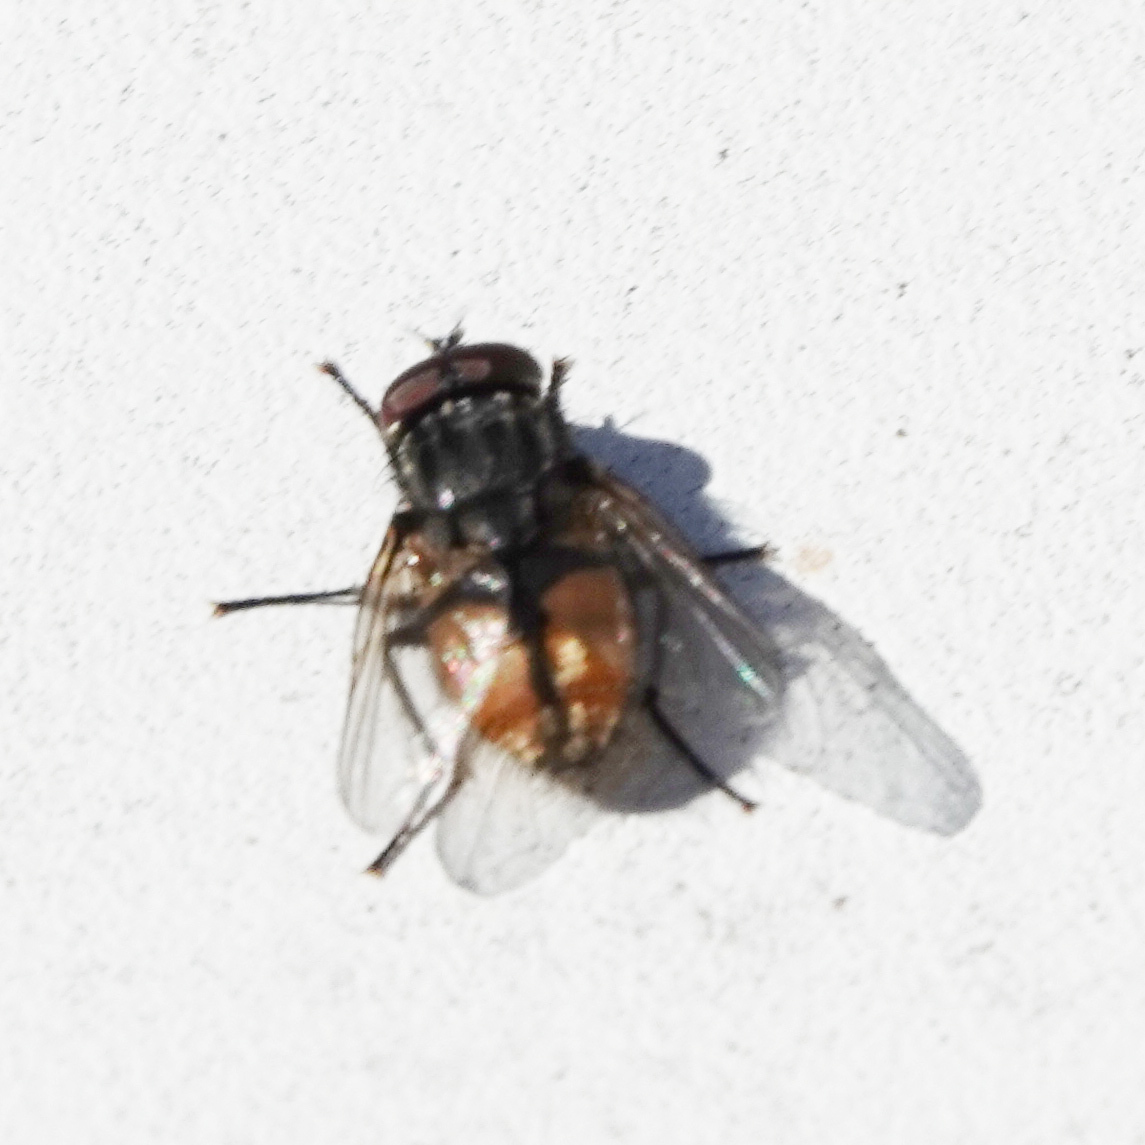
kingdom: Animalia
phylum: Arthropoda
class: Insecta
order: Diptera
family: Muscidae
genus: Musca
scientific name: Musca autumnalis
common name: Face fly
